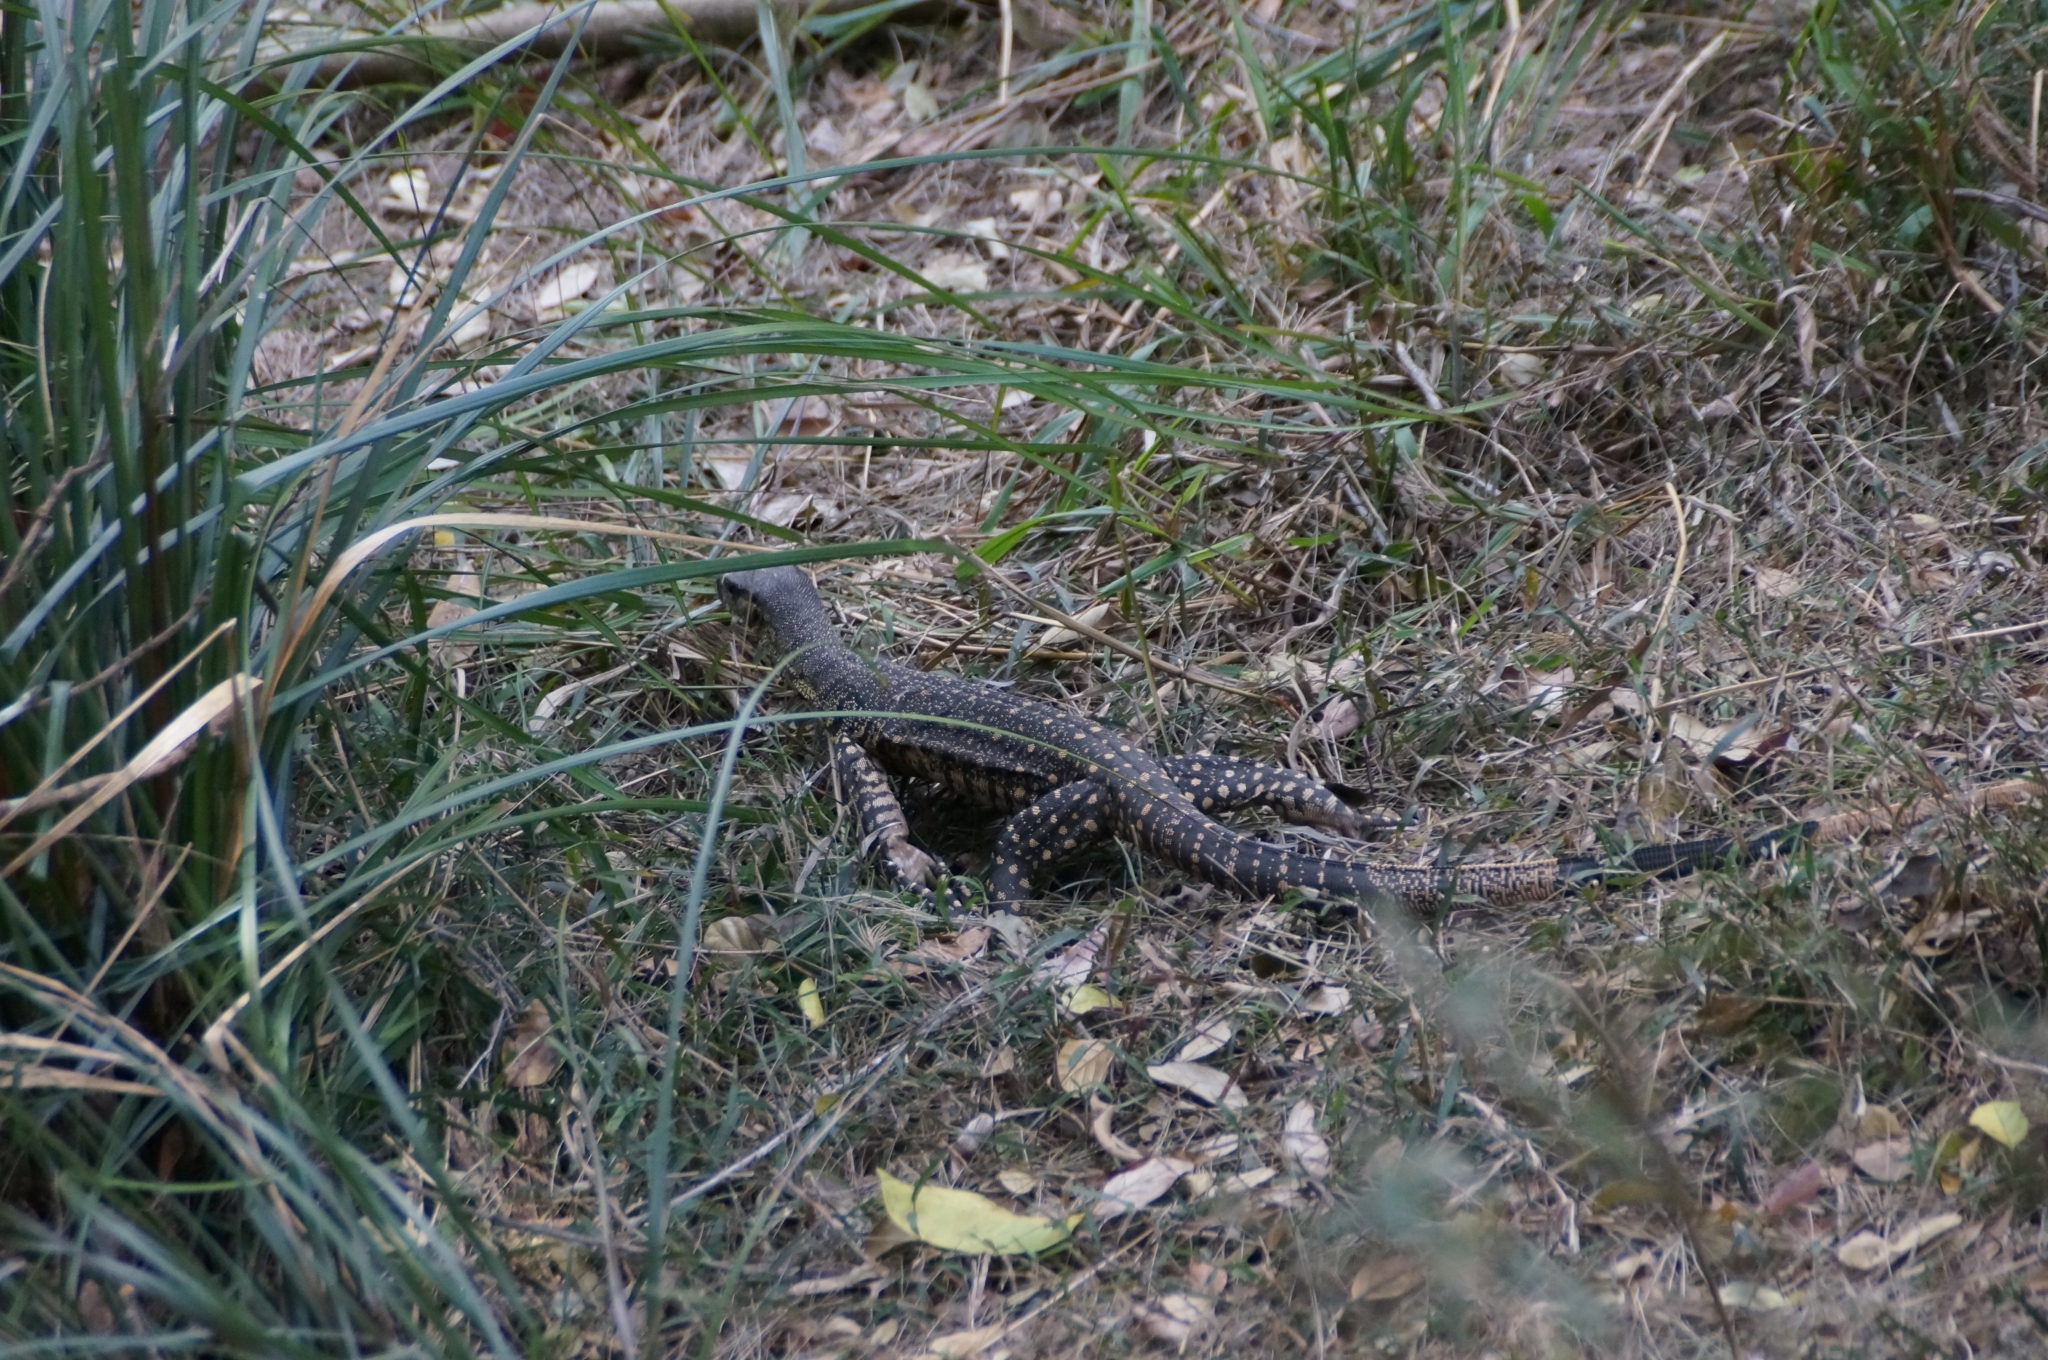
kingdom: Animalia
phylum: Chordata
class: Squamata
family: Varanidae
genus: Varanus
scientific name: Varanus varius
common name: Lace monitor
